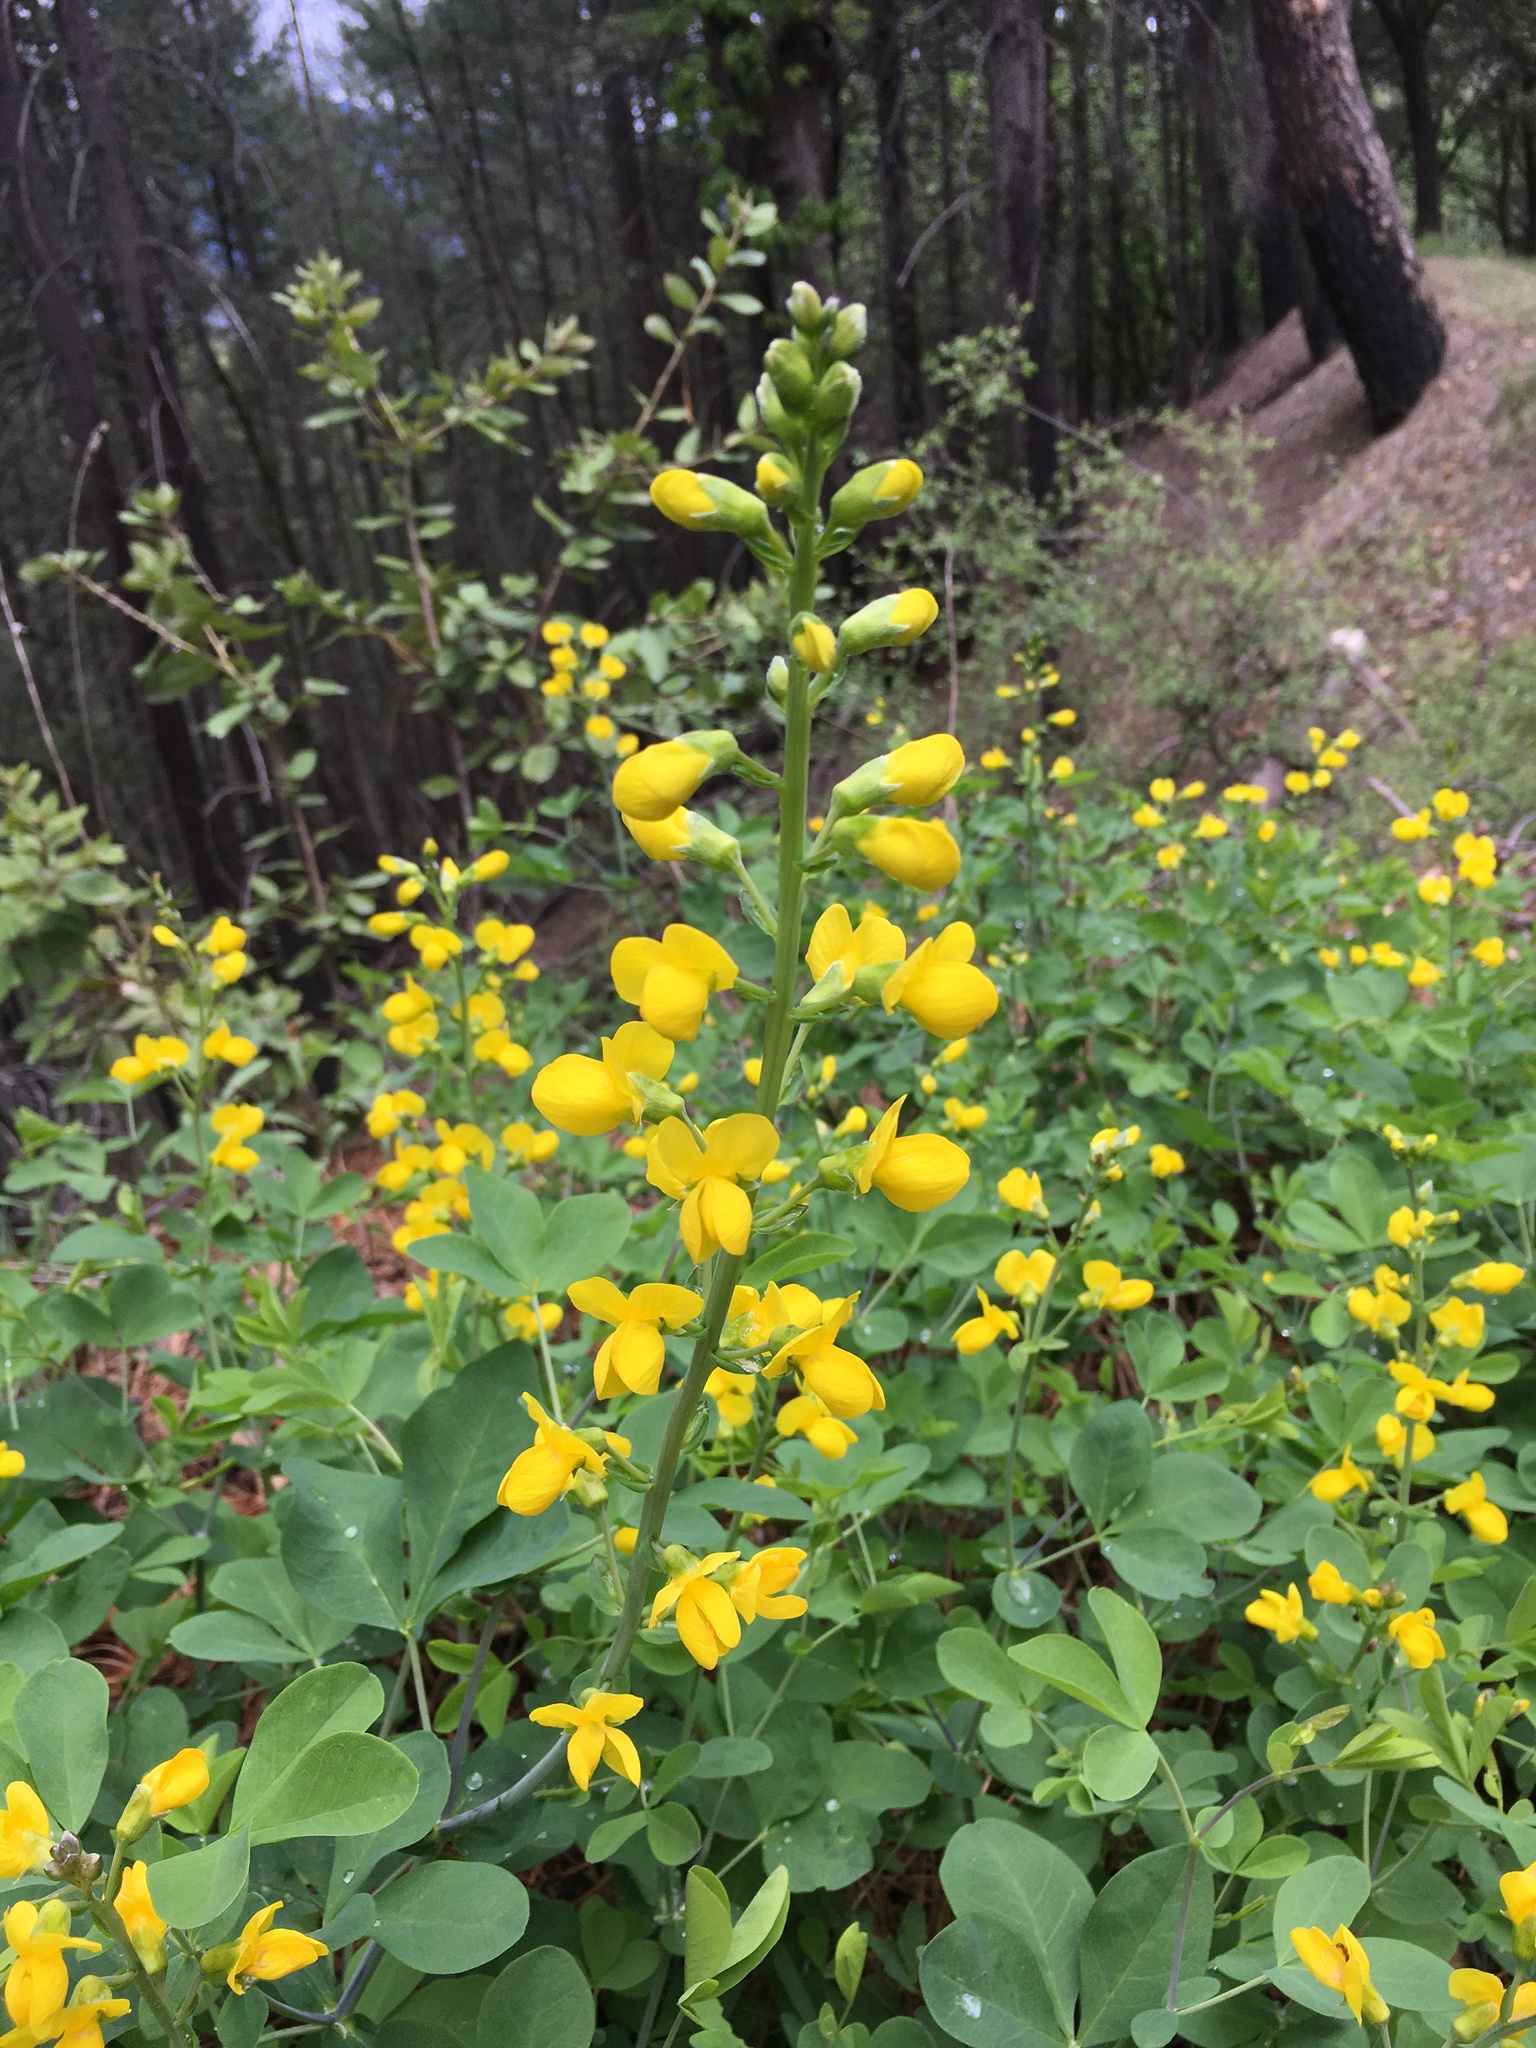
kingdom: Plantae
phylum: Tracheophyta
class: Magnoliopsida
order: Fabales
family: Fabaceae
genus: Thermopsis
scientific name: Thermopsis gracilis
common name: Slender golden-banner
